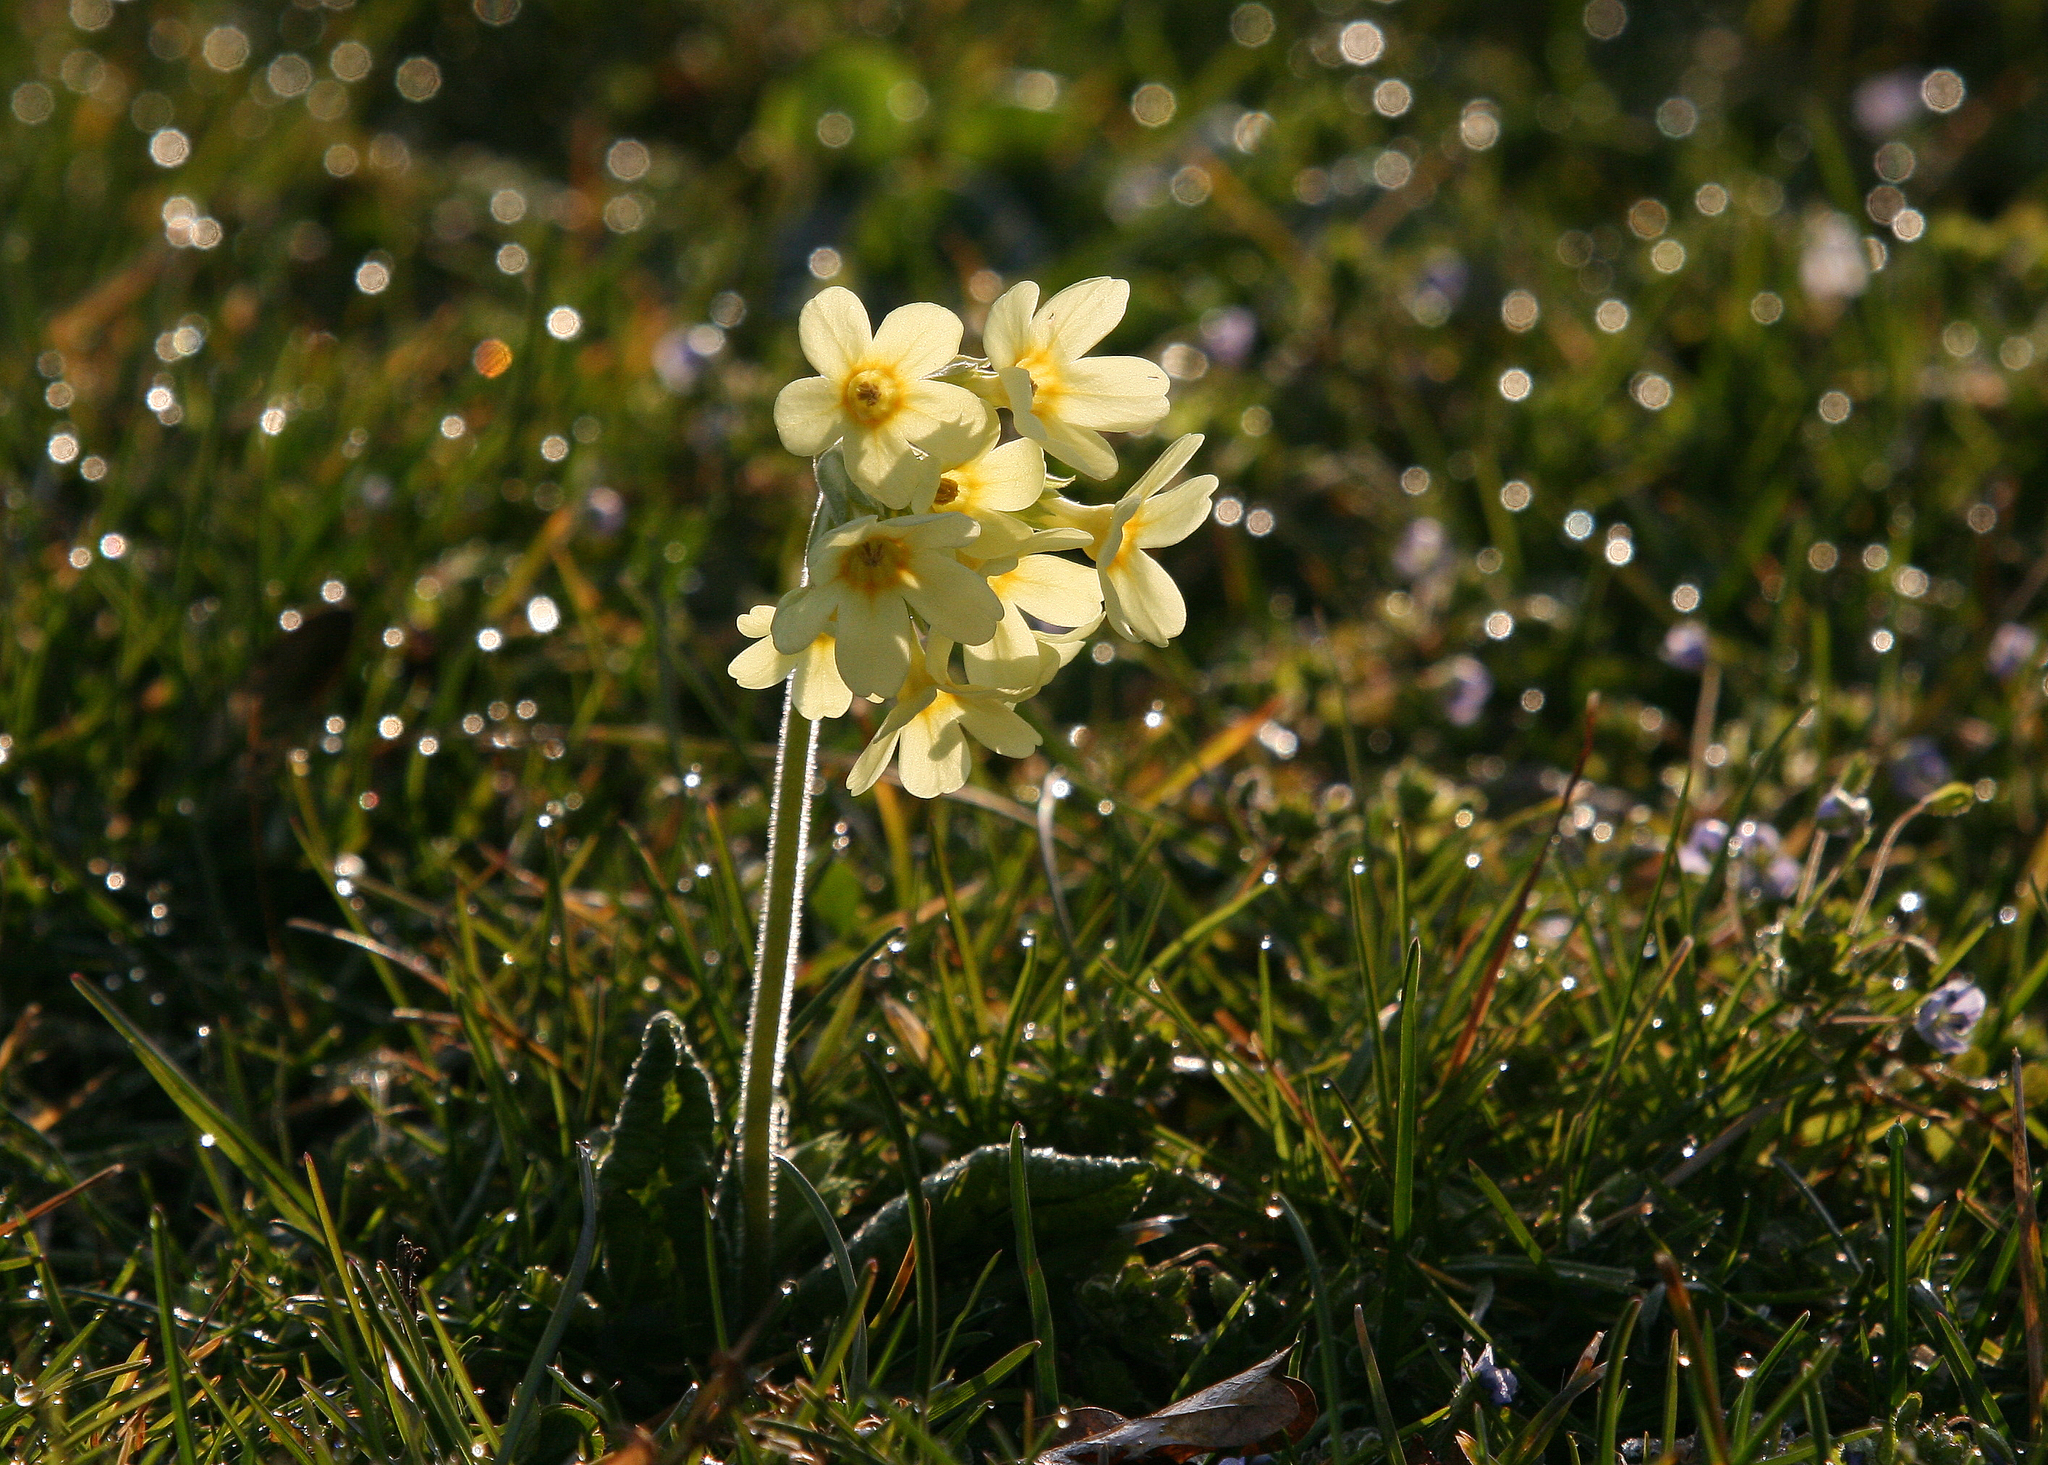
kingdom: Plantae
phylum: Tracheophyta
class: Magnoliopsida
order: Ericales
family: Primulaceae
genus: Primula
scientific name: Primula elatior
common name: Oxlip
